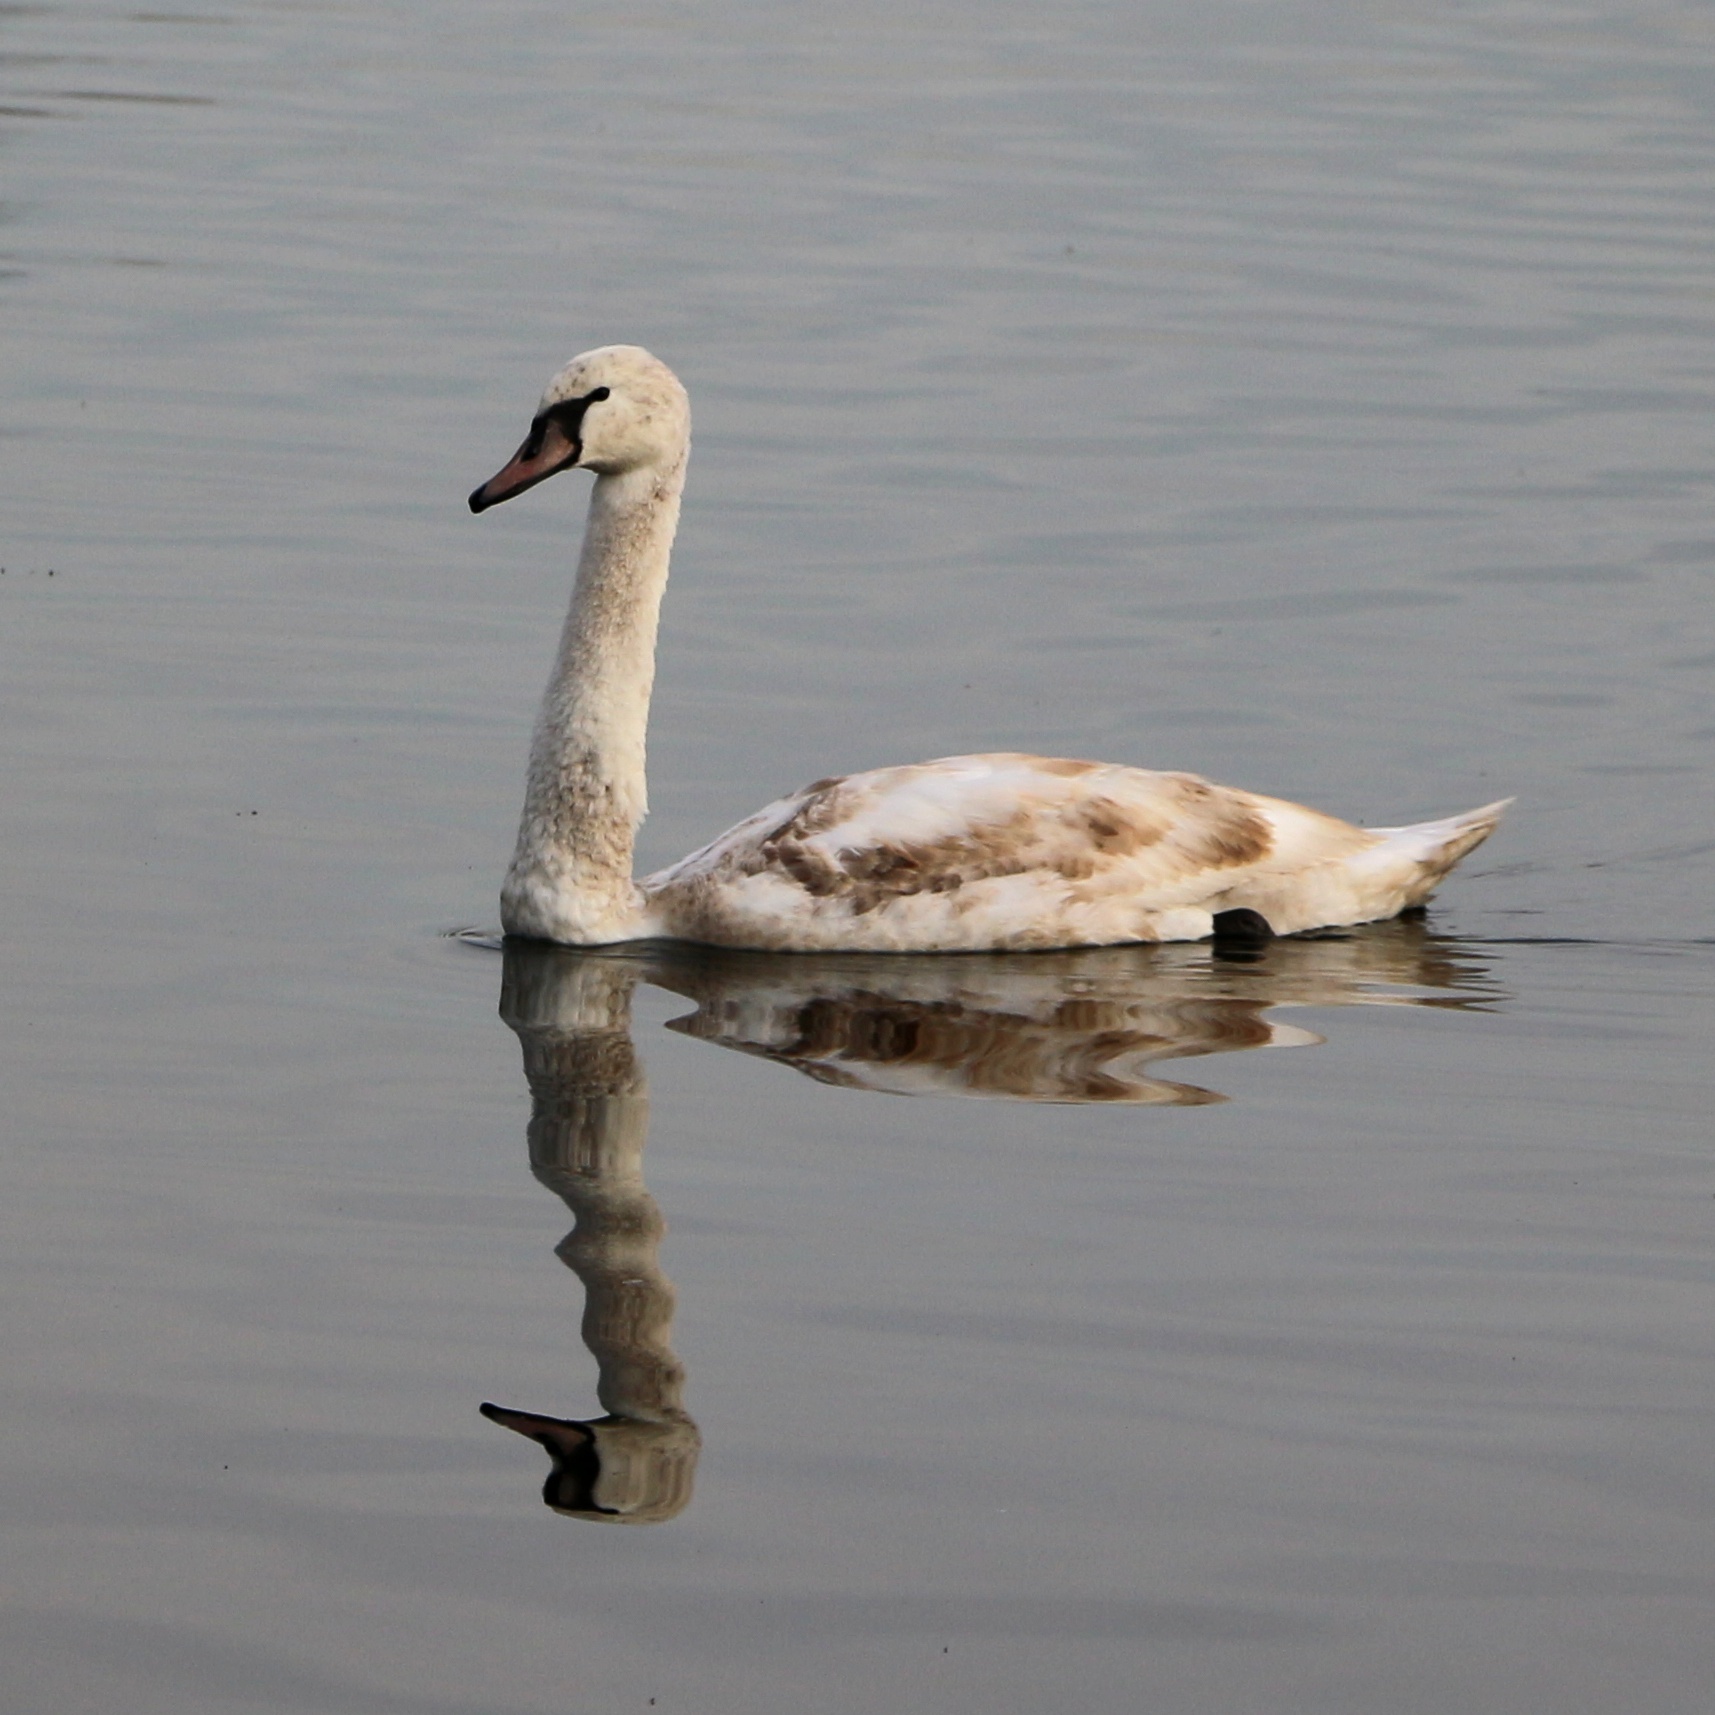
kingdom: Animalia
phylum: Chordata
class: Aves
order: Anseriformes
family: Anatidae
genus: Cygnus
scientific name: Cygnus olor
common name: Mute swan
